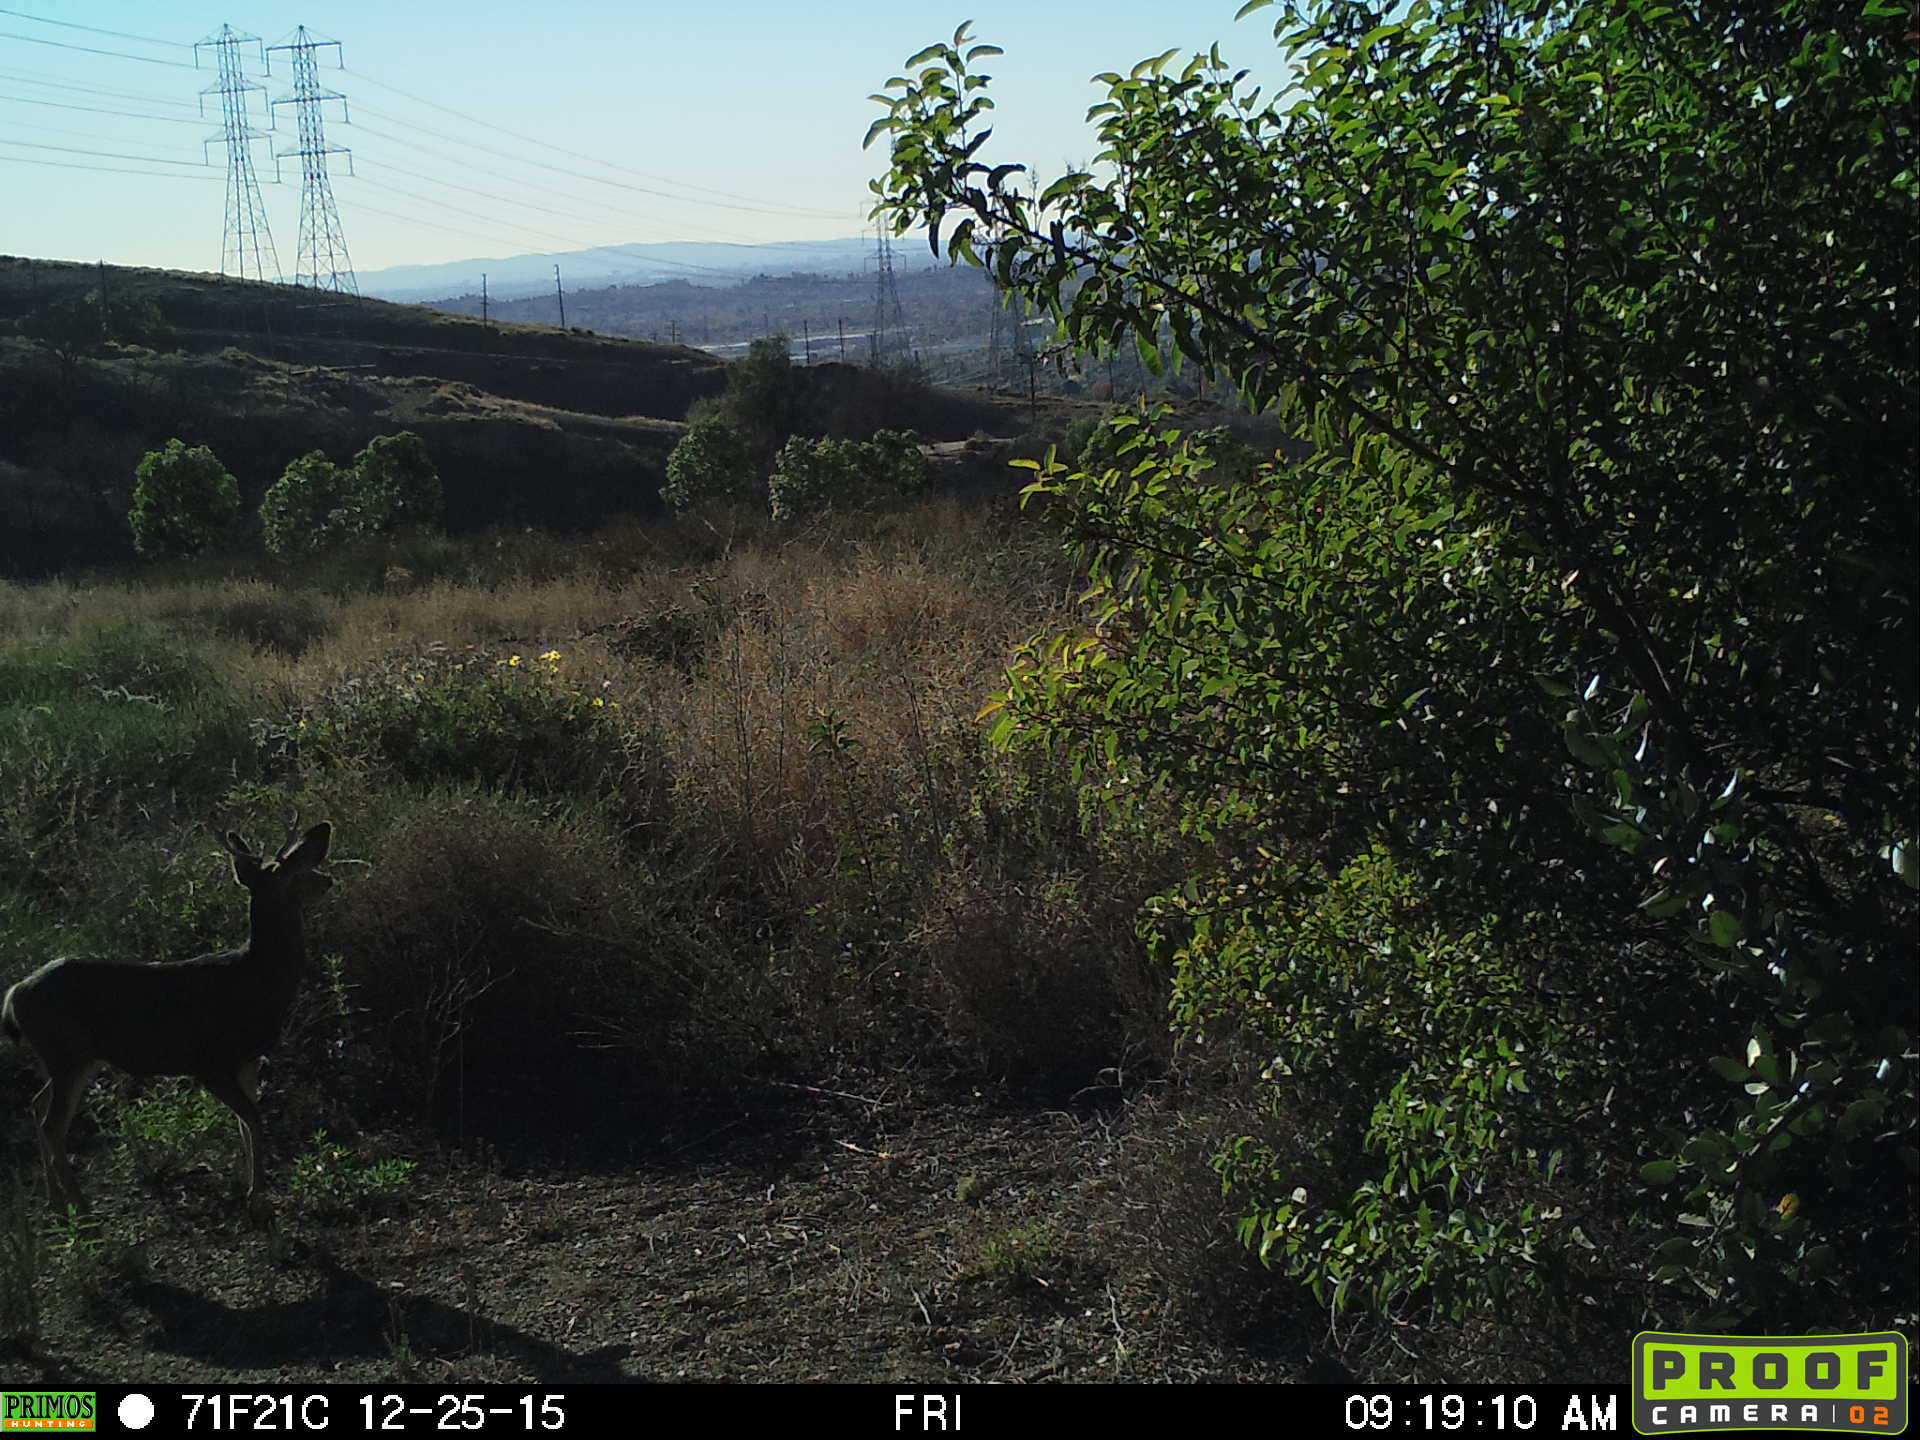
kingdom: Animalia
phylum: Chordata
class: Mammalia
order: Artiodactyla
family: Cervidae
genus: Odocoileus
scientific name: Odocoileus hemionus
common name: Mule deer
